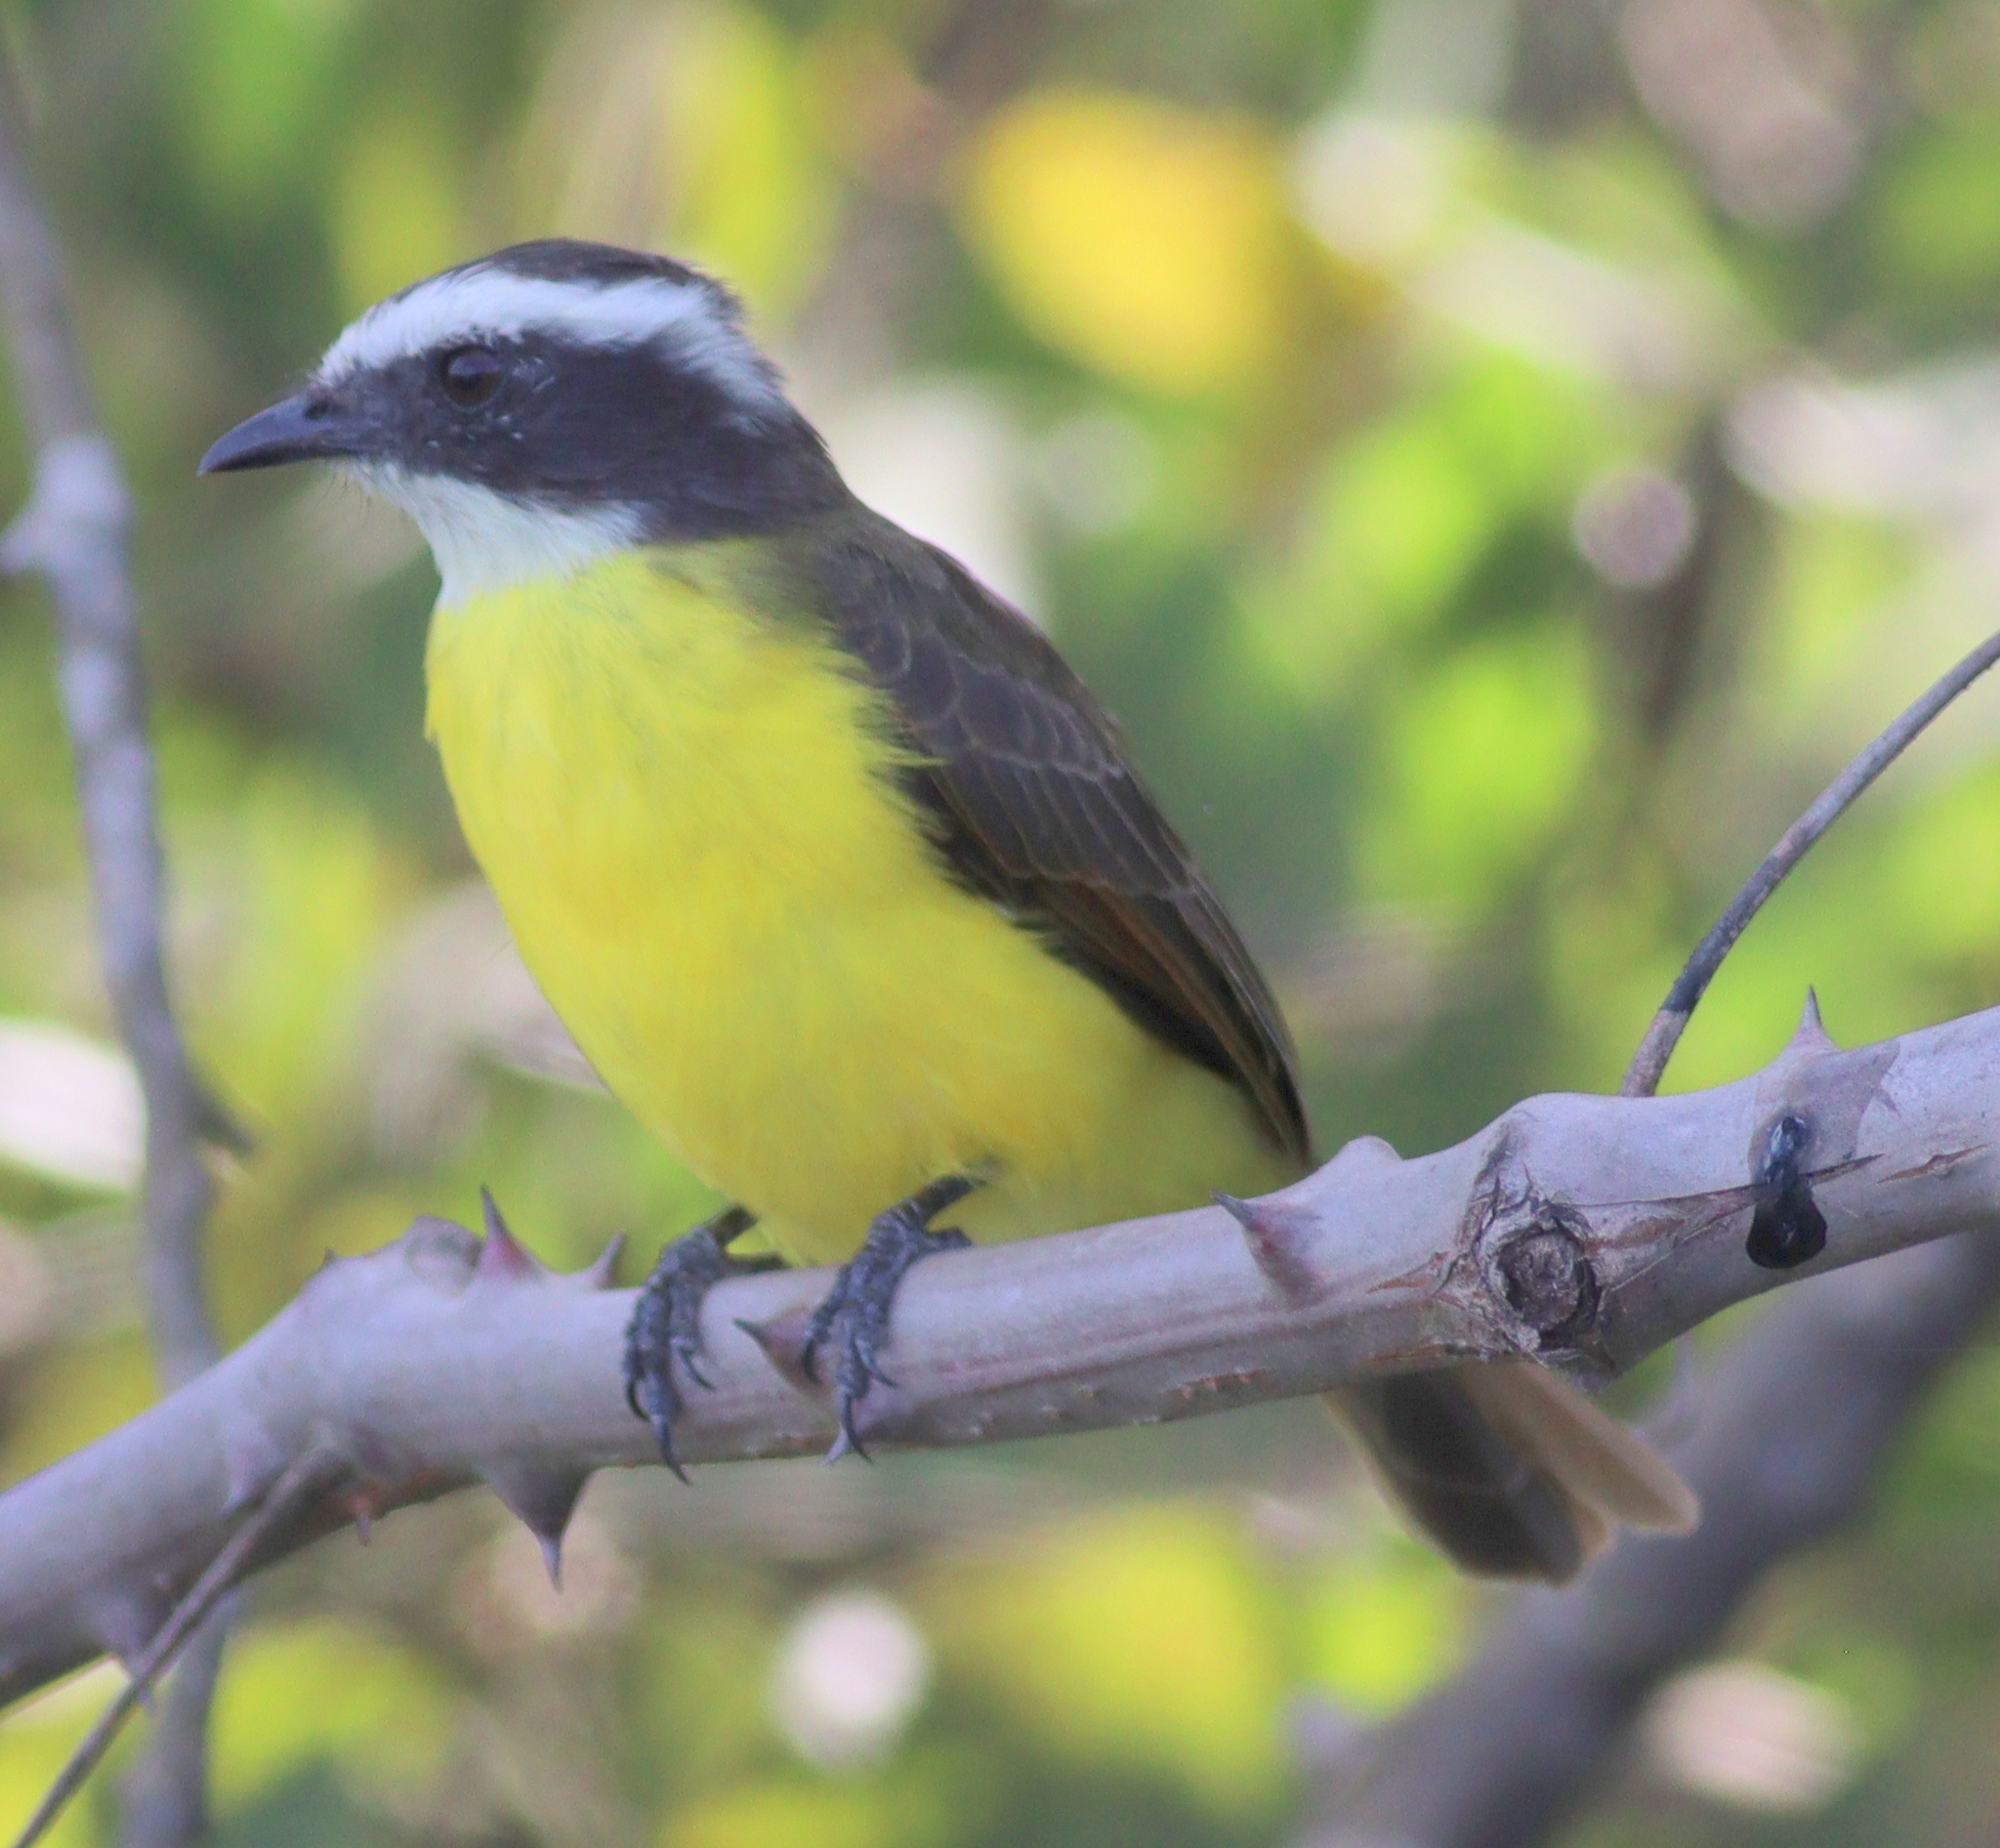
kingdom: Animalia
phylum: Chordata
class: Aves
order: Passeriformes
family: Tyrannidae
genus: Myiozetetes
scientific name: Myiozetetes cayanensis
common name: Rusty-margined flycatcher
